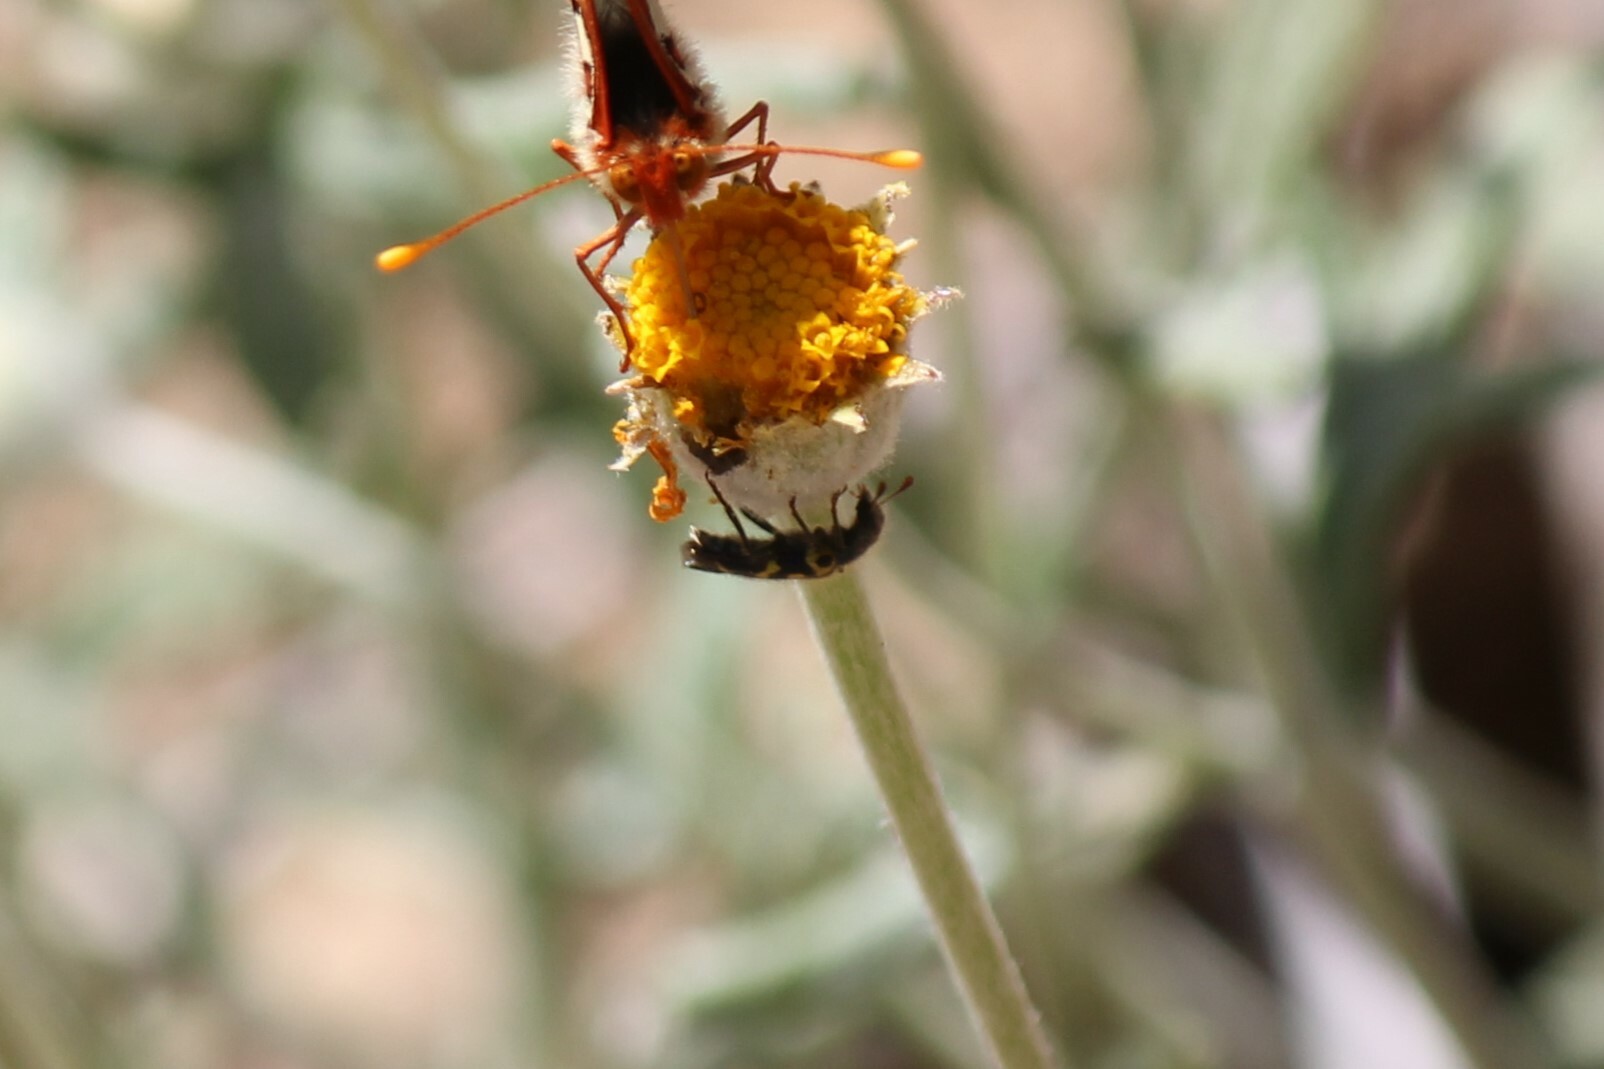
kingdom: Animalia
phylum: Arthropoda
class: Insecta
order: Coleoptera
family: Cleridae
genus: Trichodes
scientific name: Trichodes ornatus
